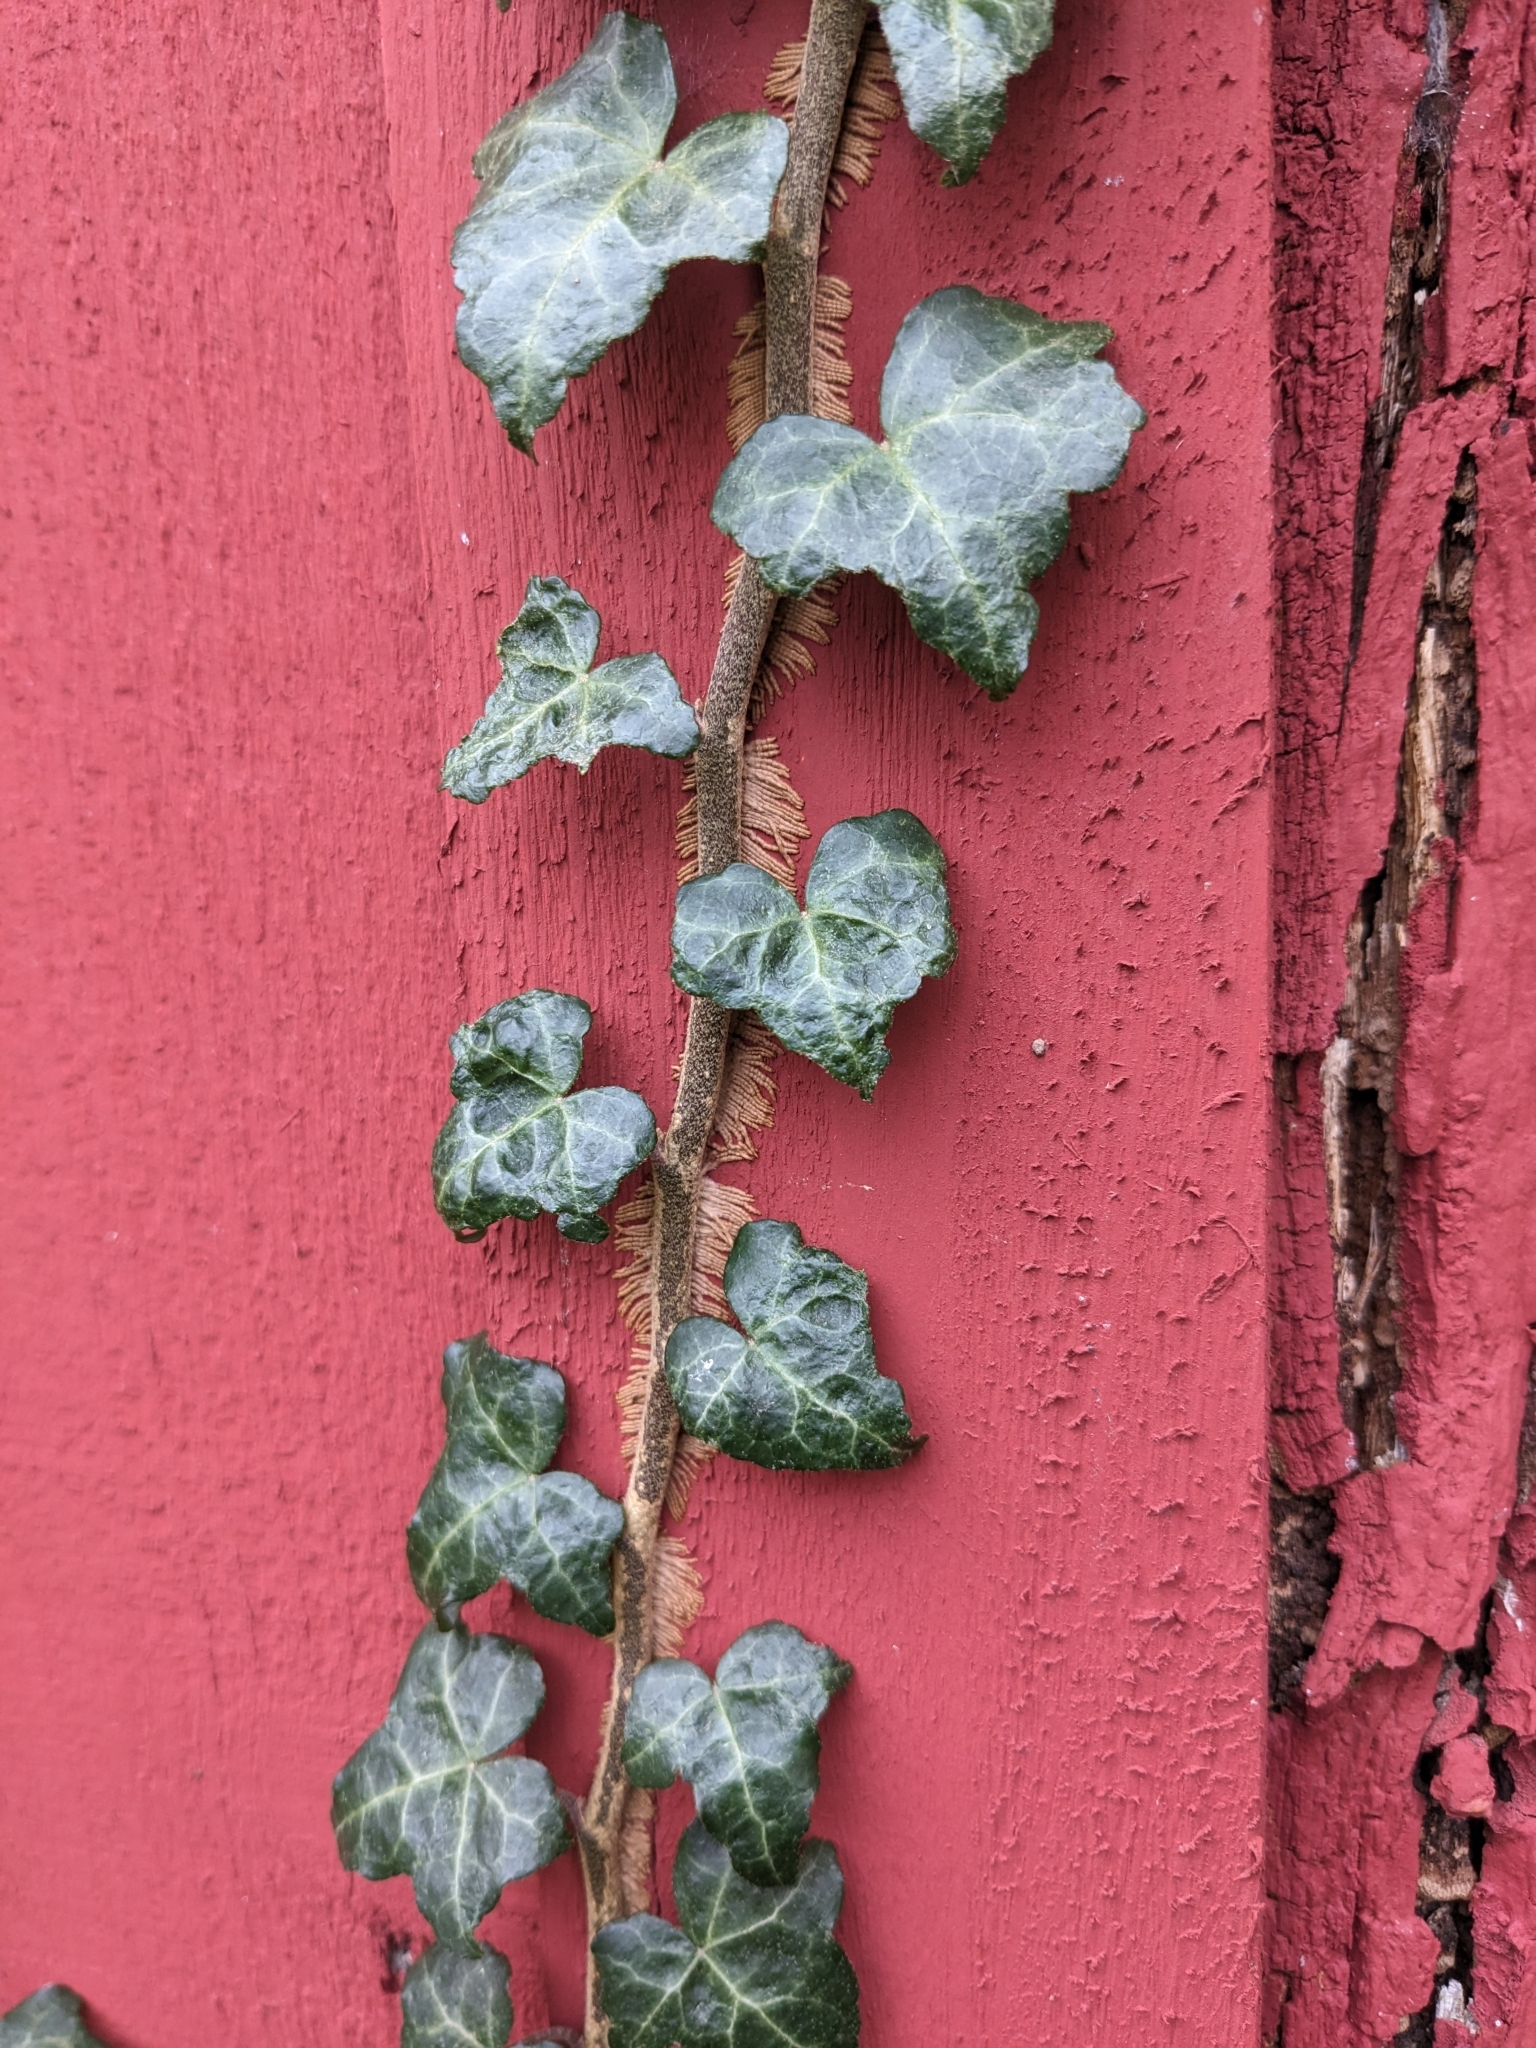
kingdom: Plantae
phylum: Tracheophyta
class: Magnoliopsida
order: Apiales
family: Araliaceae
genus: Hedera
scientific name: Hedera helix
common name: Ivy
